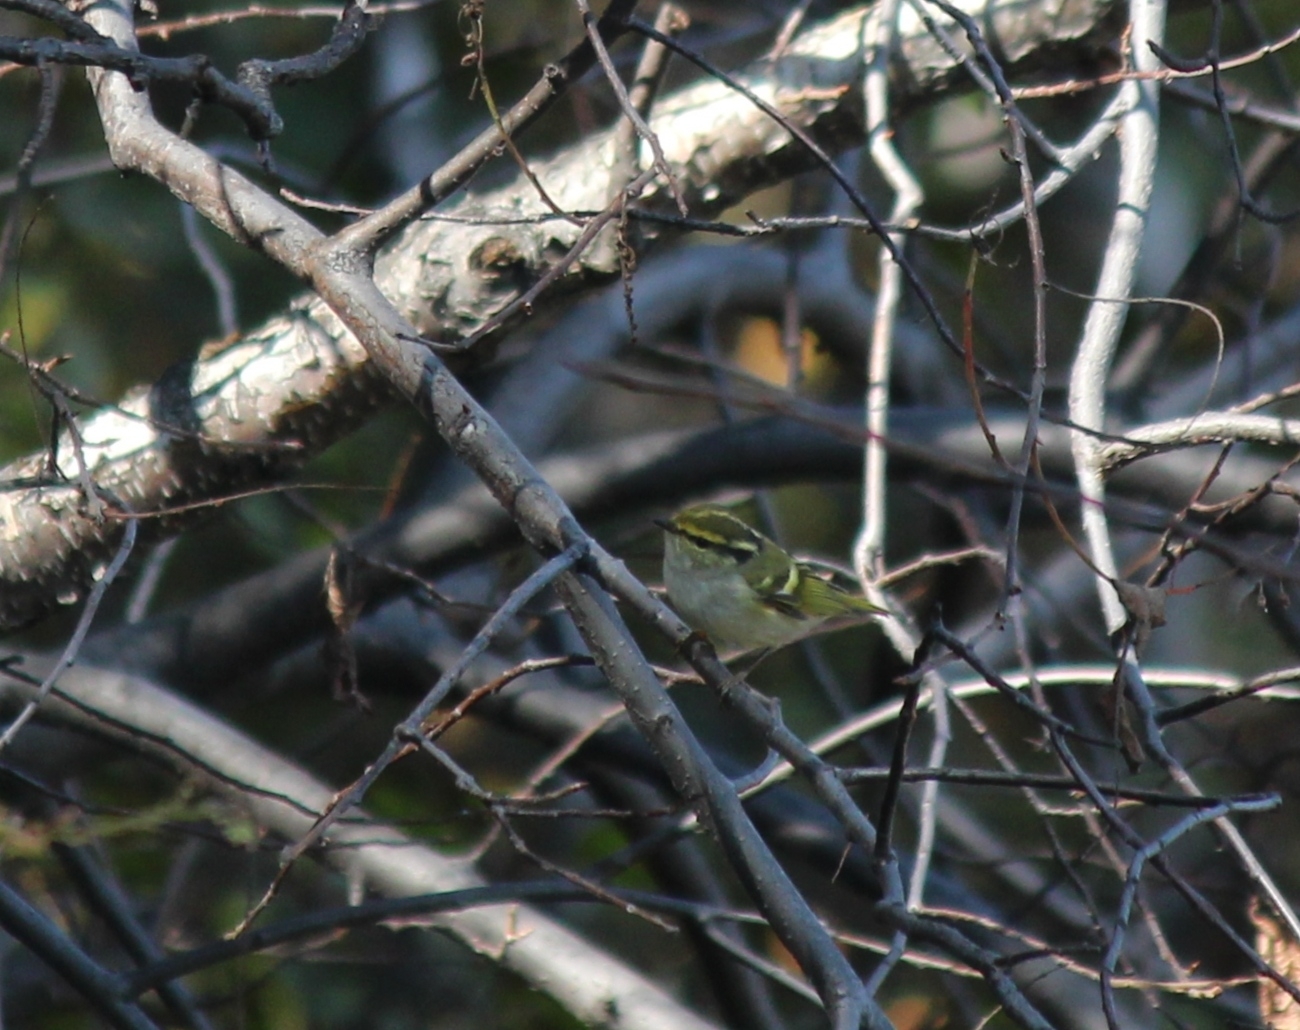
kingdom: Animalia
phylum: Chordata
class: Aves
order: Passeriformes
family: Phylloscopidae
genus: Phylloscopus
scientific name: Phylloscopus proregulus
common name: Pallas's leaf warbler
